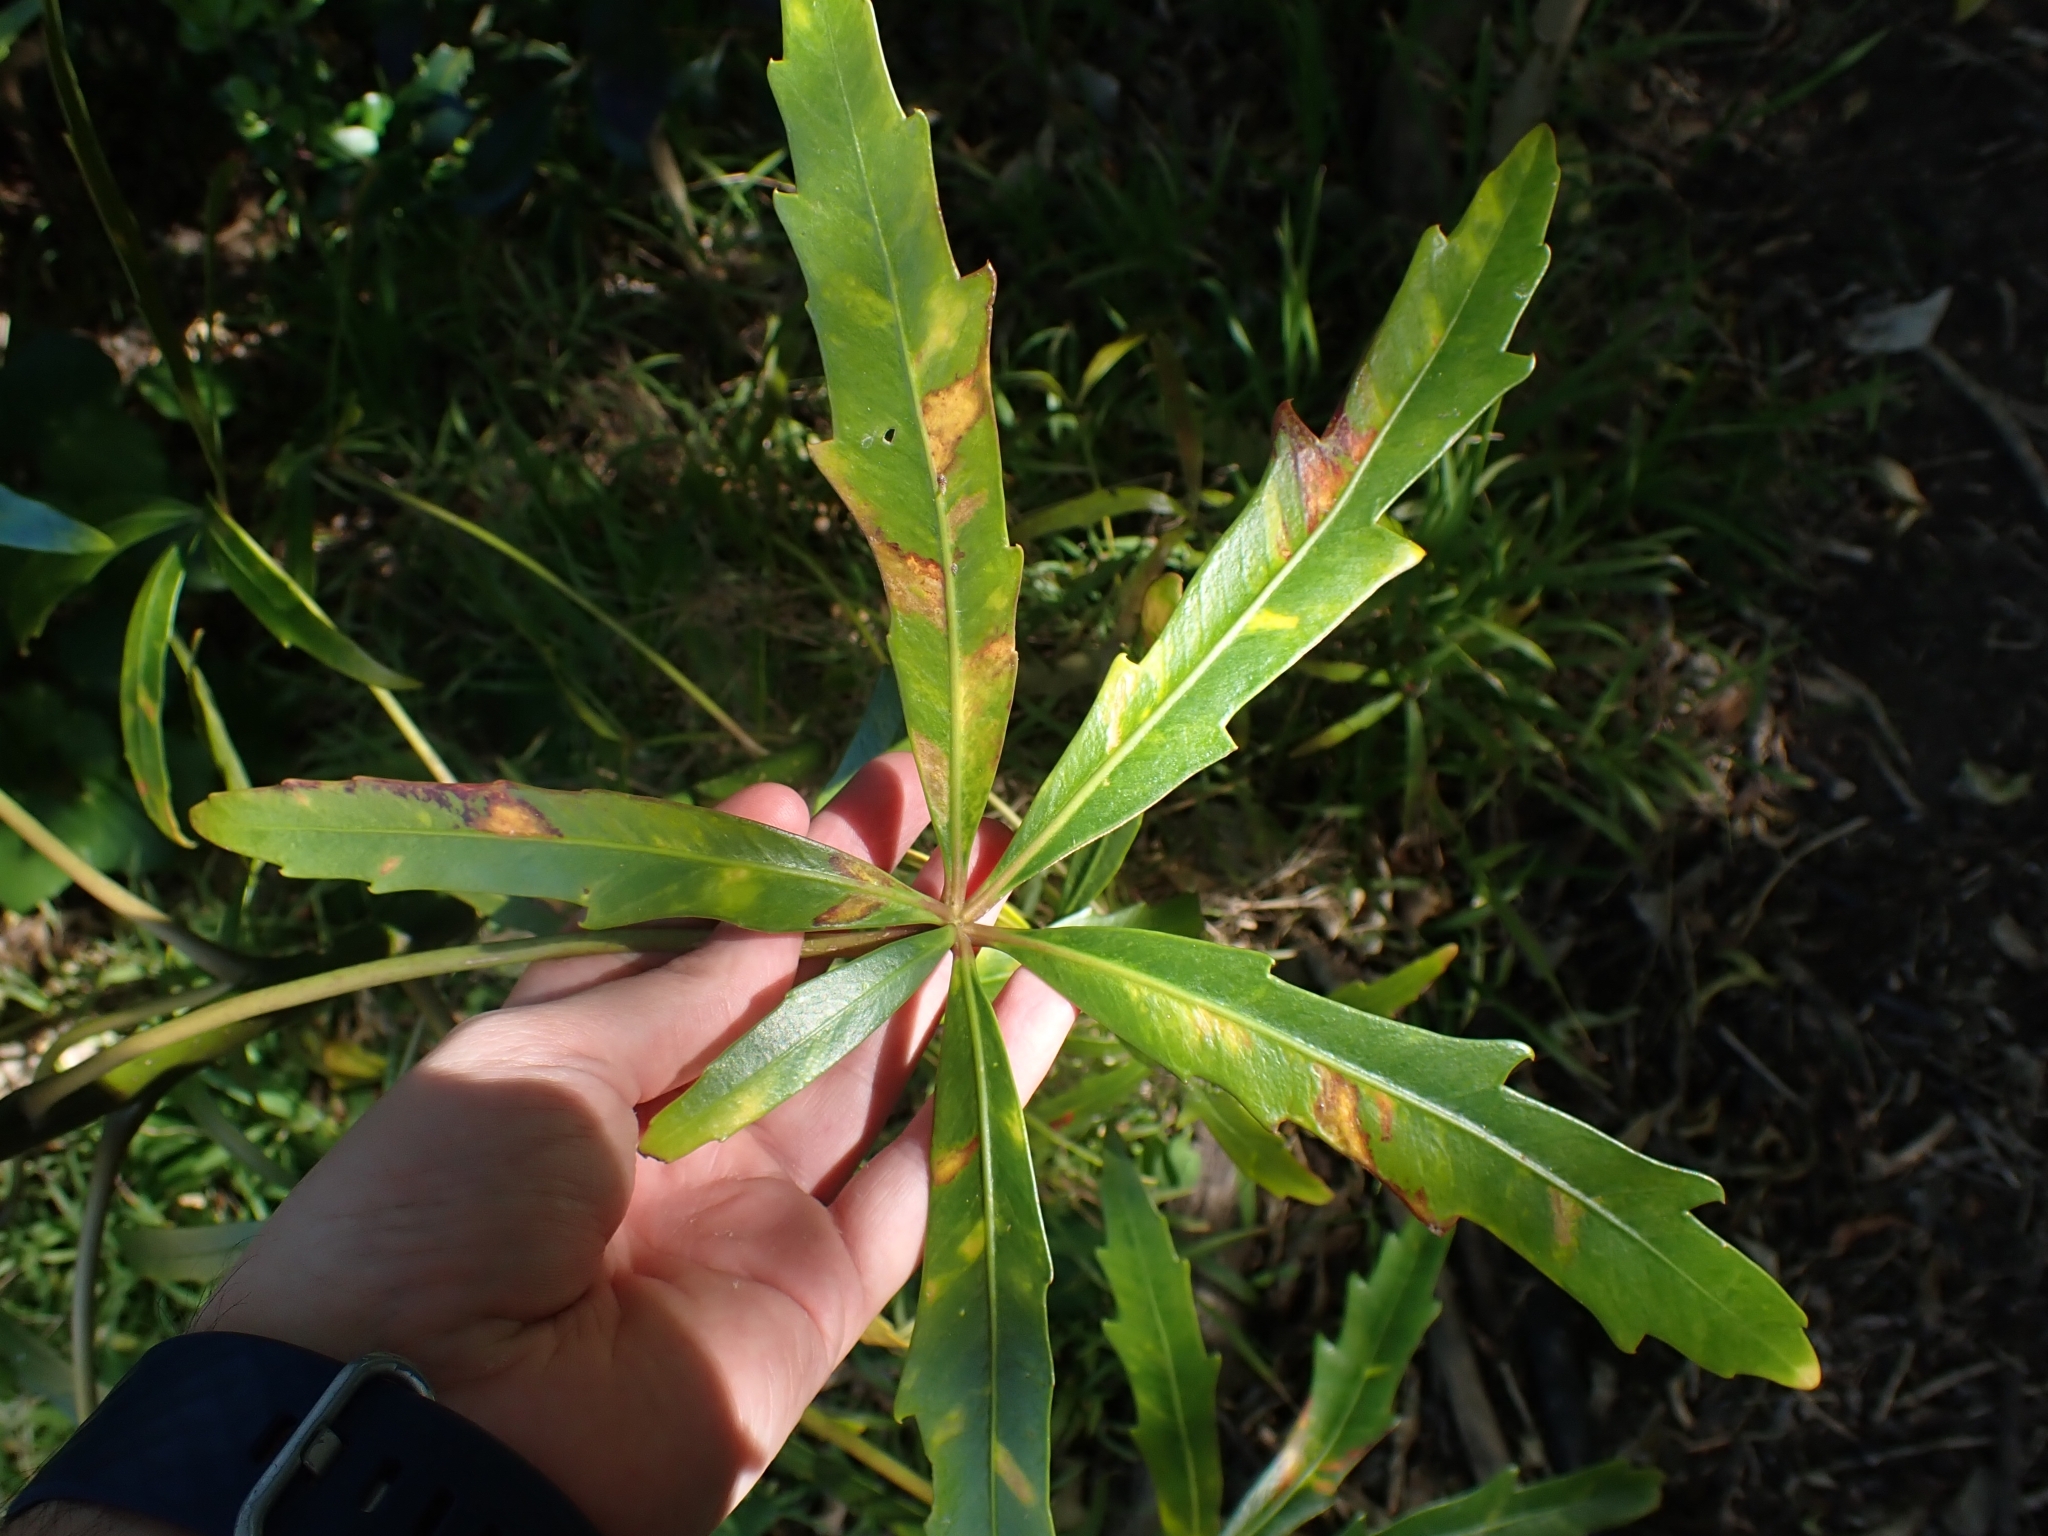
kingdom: Plantae
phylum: Tracheophyta
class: Magnoliopsida
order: Apiales
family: Araliaceae
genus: Pseudopanax
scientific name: Pseudopanax
